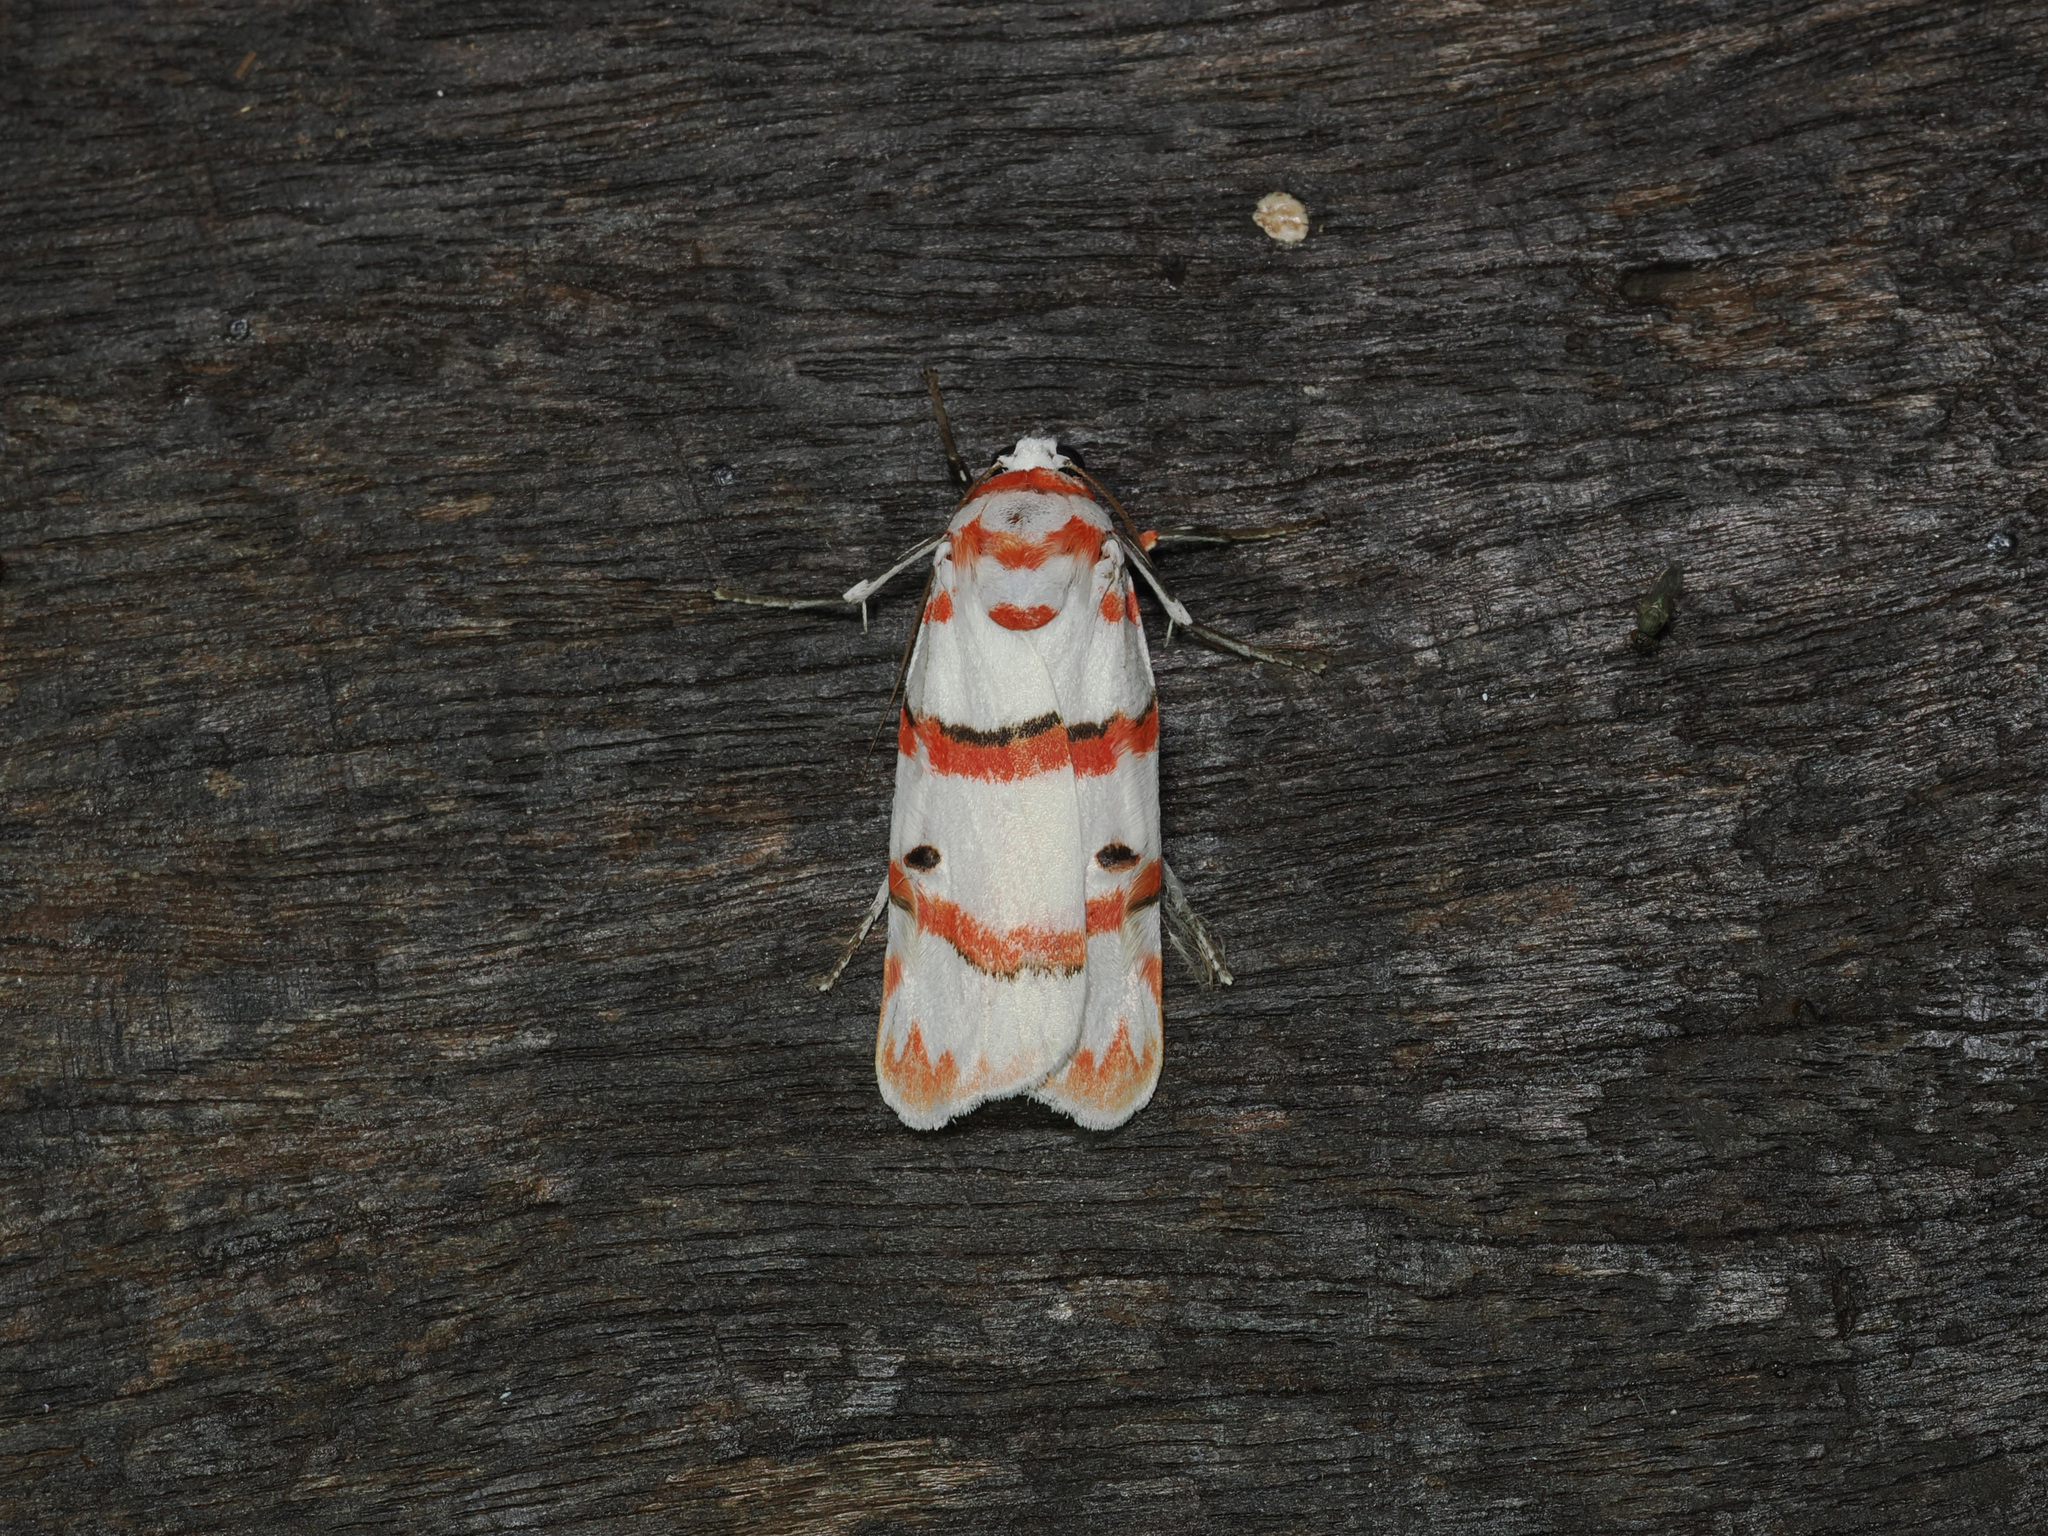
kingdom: Animalia
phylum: Arthropoda
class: Insecta
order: Lepidoptera
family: Erebidae
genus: Cyana
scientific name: Cyana perornata
